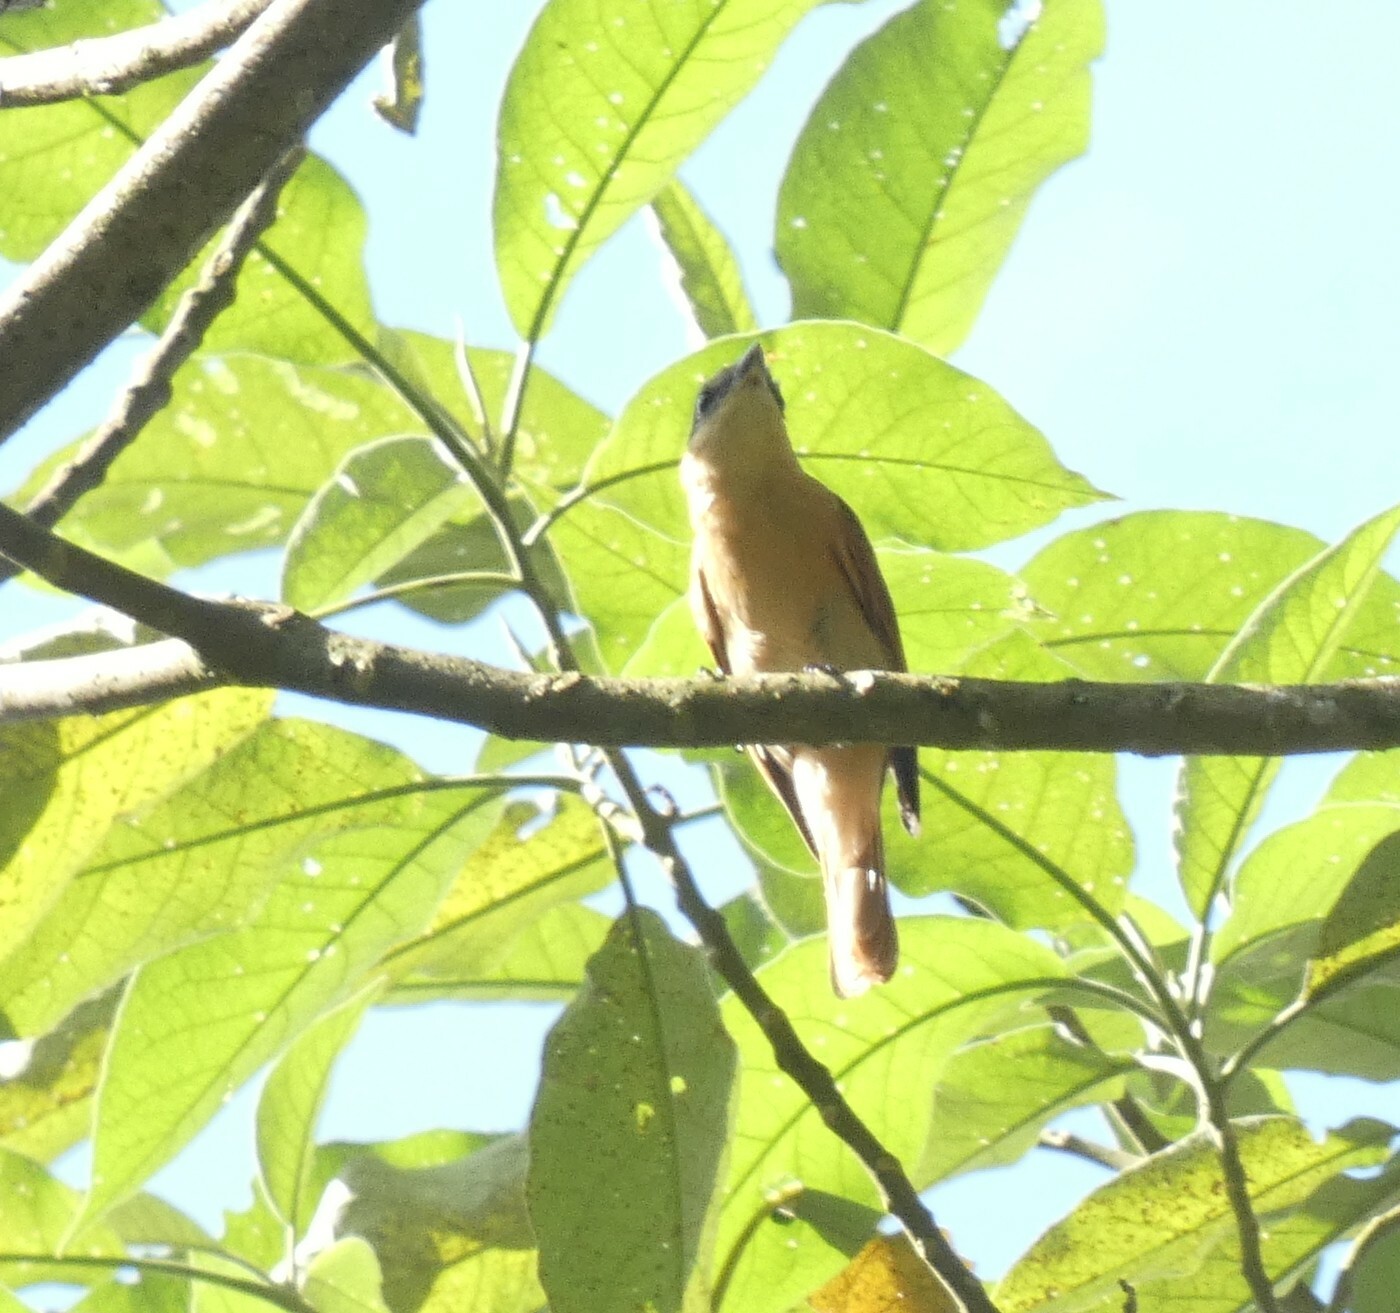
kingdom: Animalia
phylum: Chordata
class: Aves
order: Passeriformes
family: Cotingidae
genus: Pachyramphus
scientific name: Pachyramphus castaneus
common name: Chestnut-crowned becard
